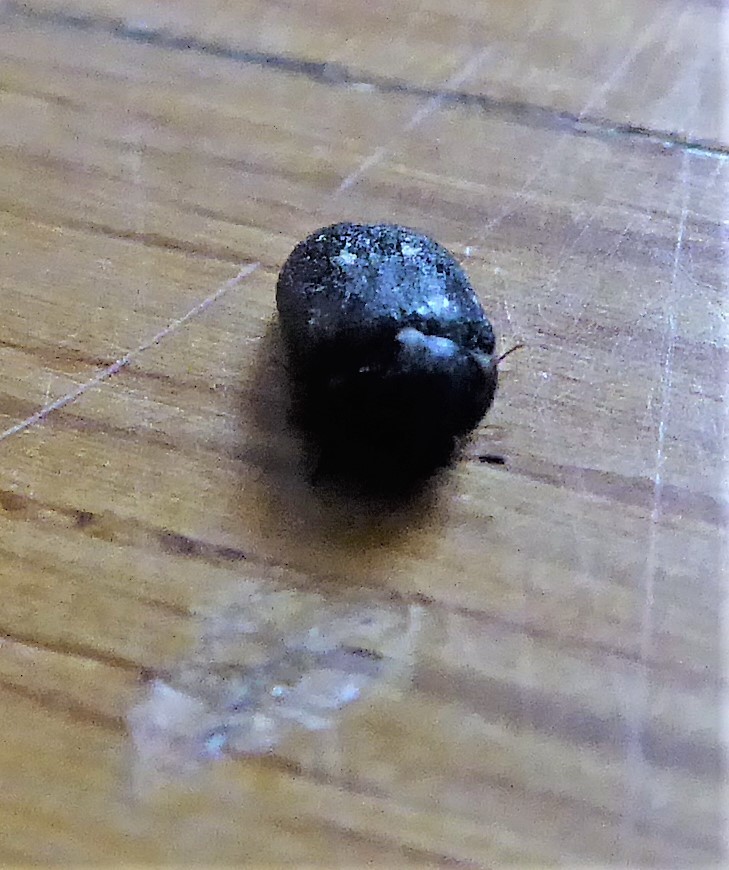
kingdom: Animalia
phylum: Arthropoda
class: Insecta
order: Coleoptera
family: Dermestidae
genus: Attagenus
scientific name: Attagenus pellio
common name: Two-spotted carpet beetle
